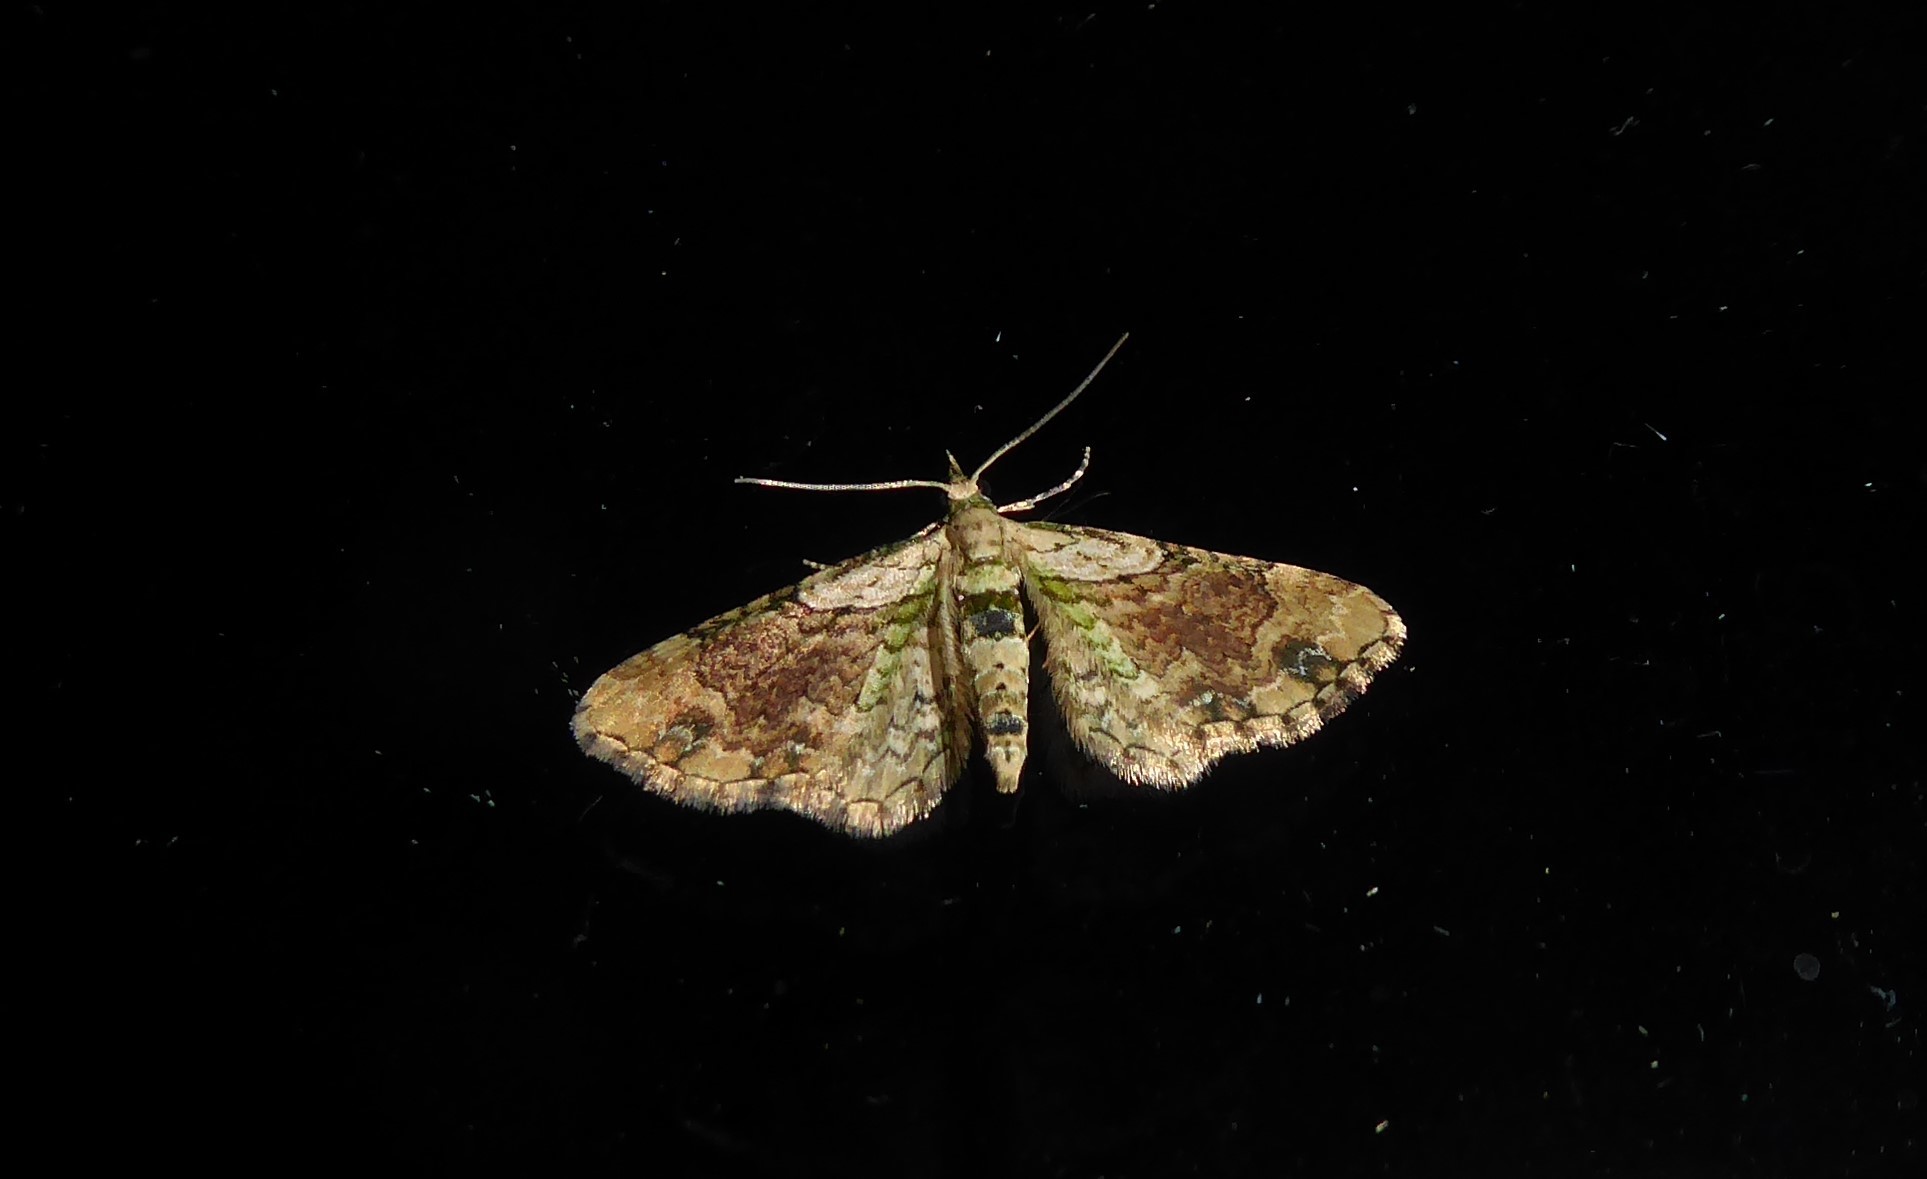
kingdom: Animalia
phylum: Arthropoda
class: Insecta
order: Lepidoptera
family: Geometridae
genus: Chloroclystis
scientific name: Chloroclystis
